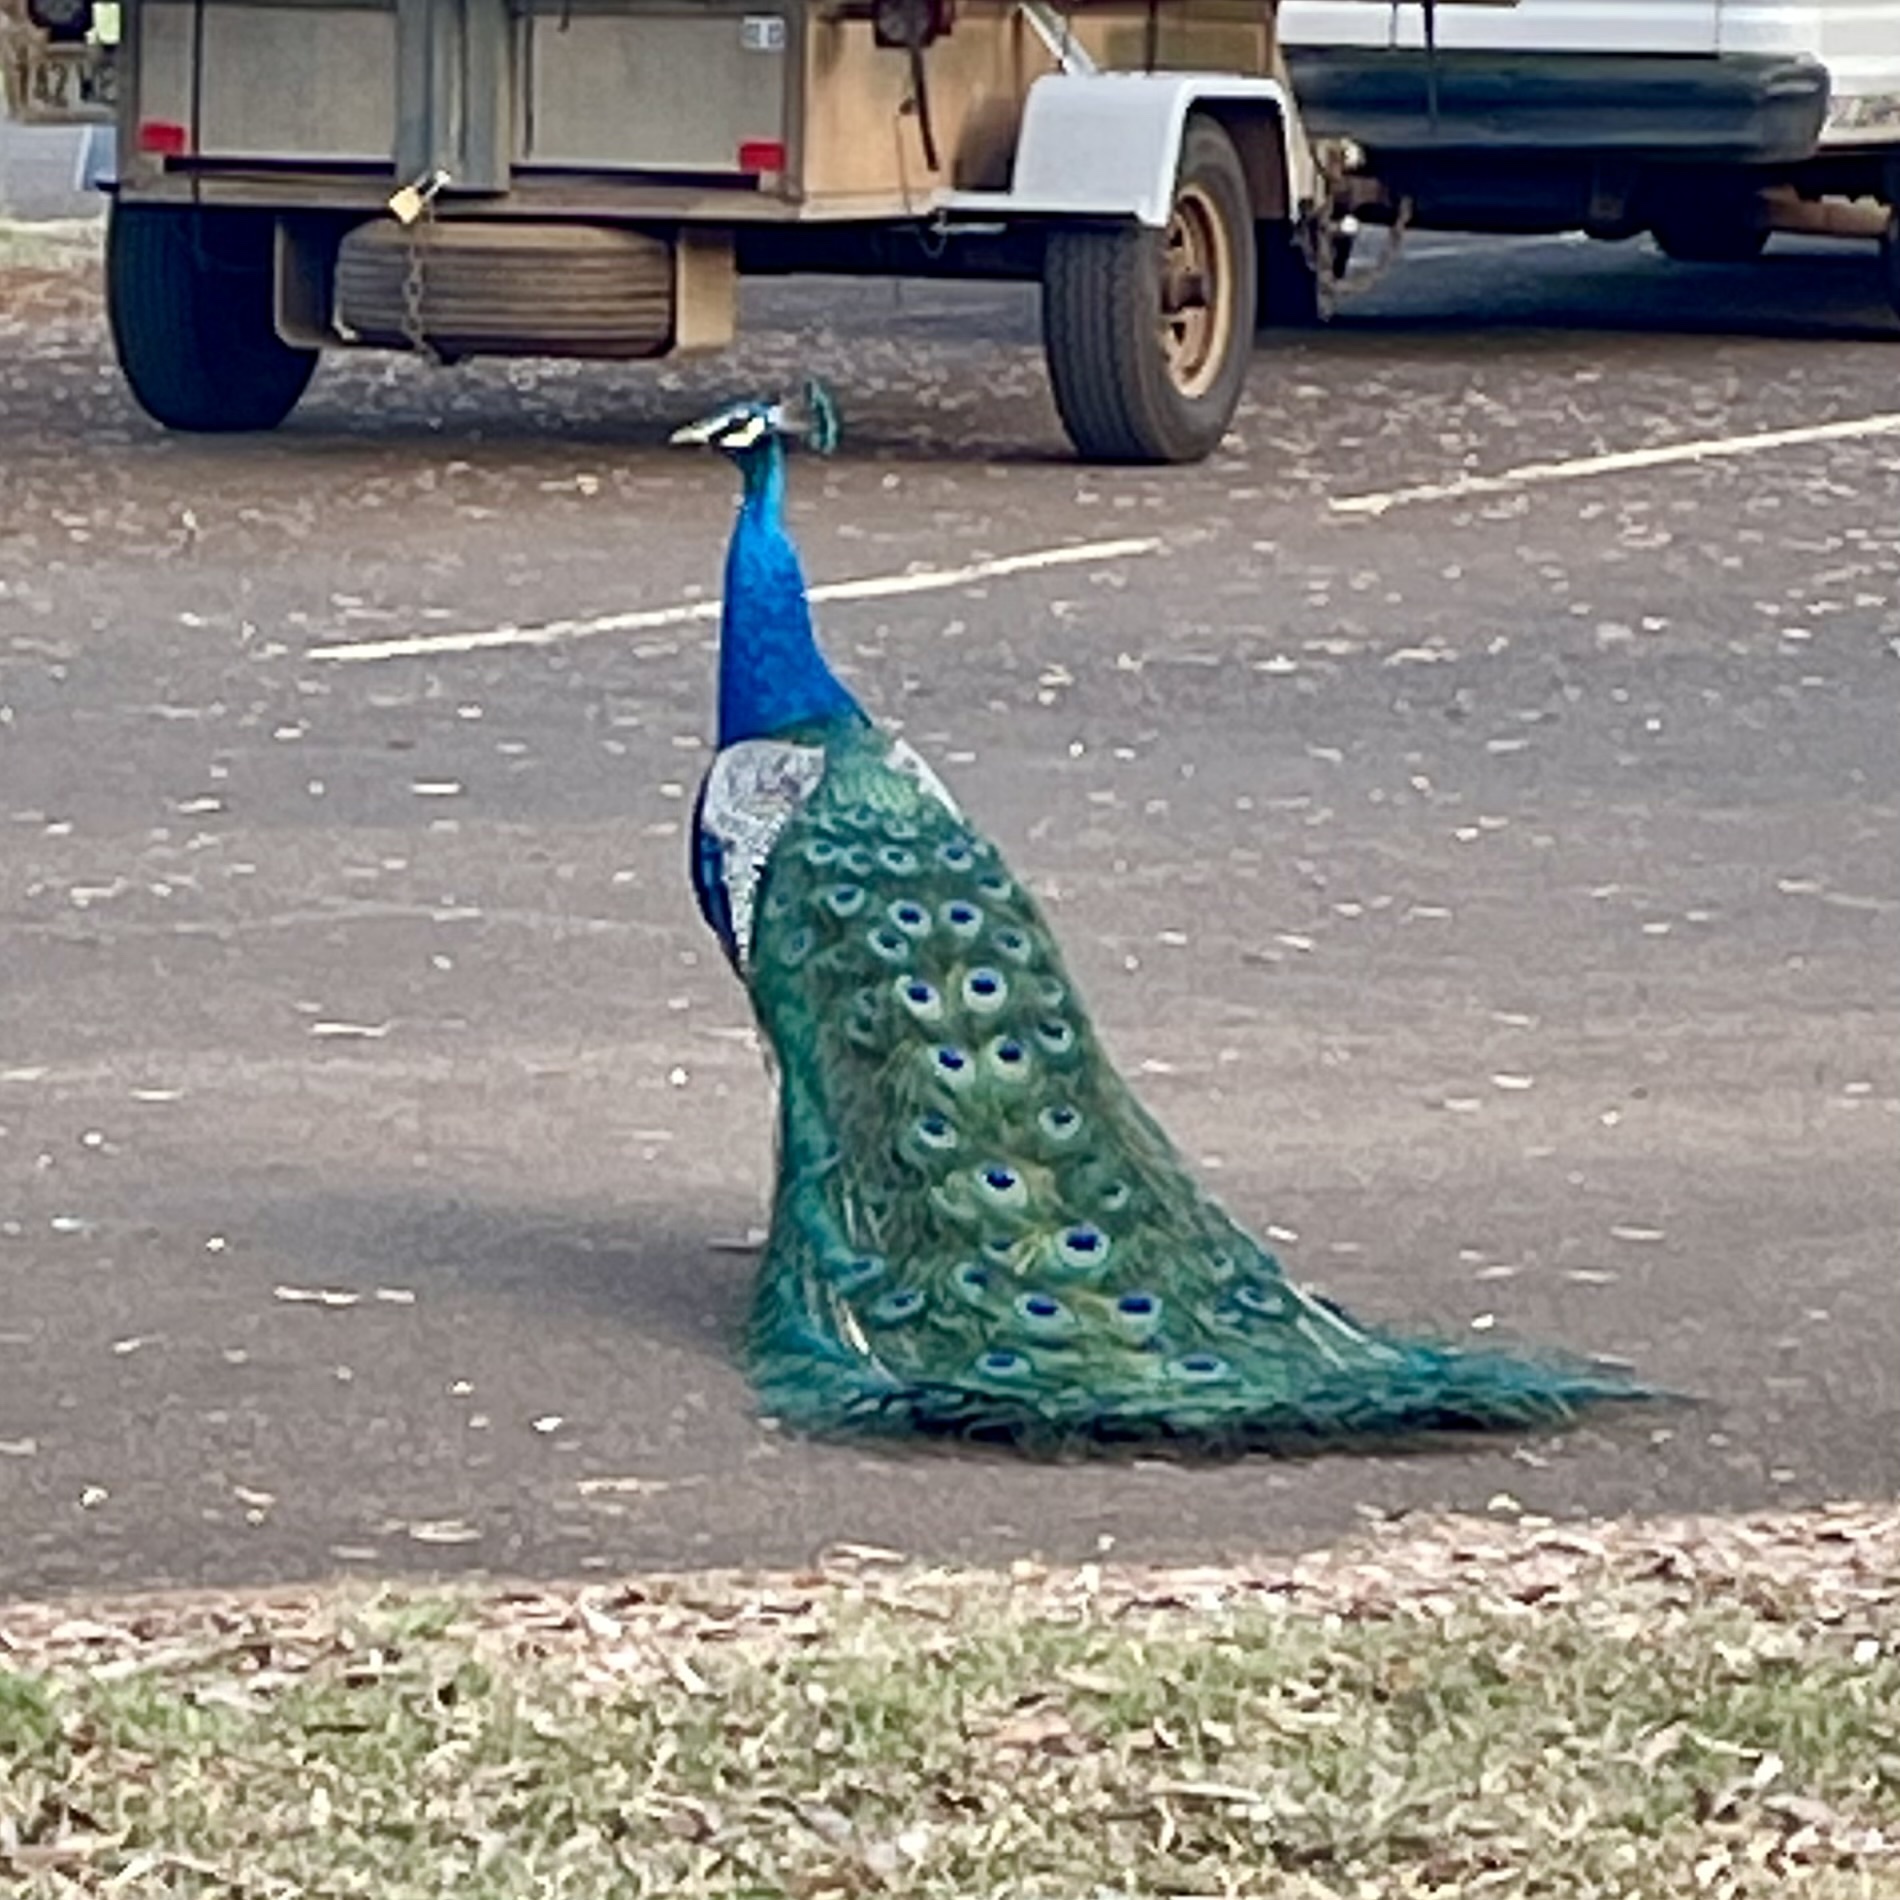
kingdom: Animalia
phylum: Chordata
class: Aves
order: Galliformes
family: Phasianidae
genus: Pavo
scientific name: Pavo cristatus
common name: Indian peafowl
